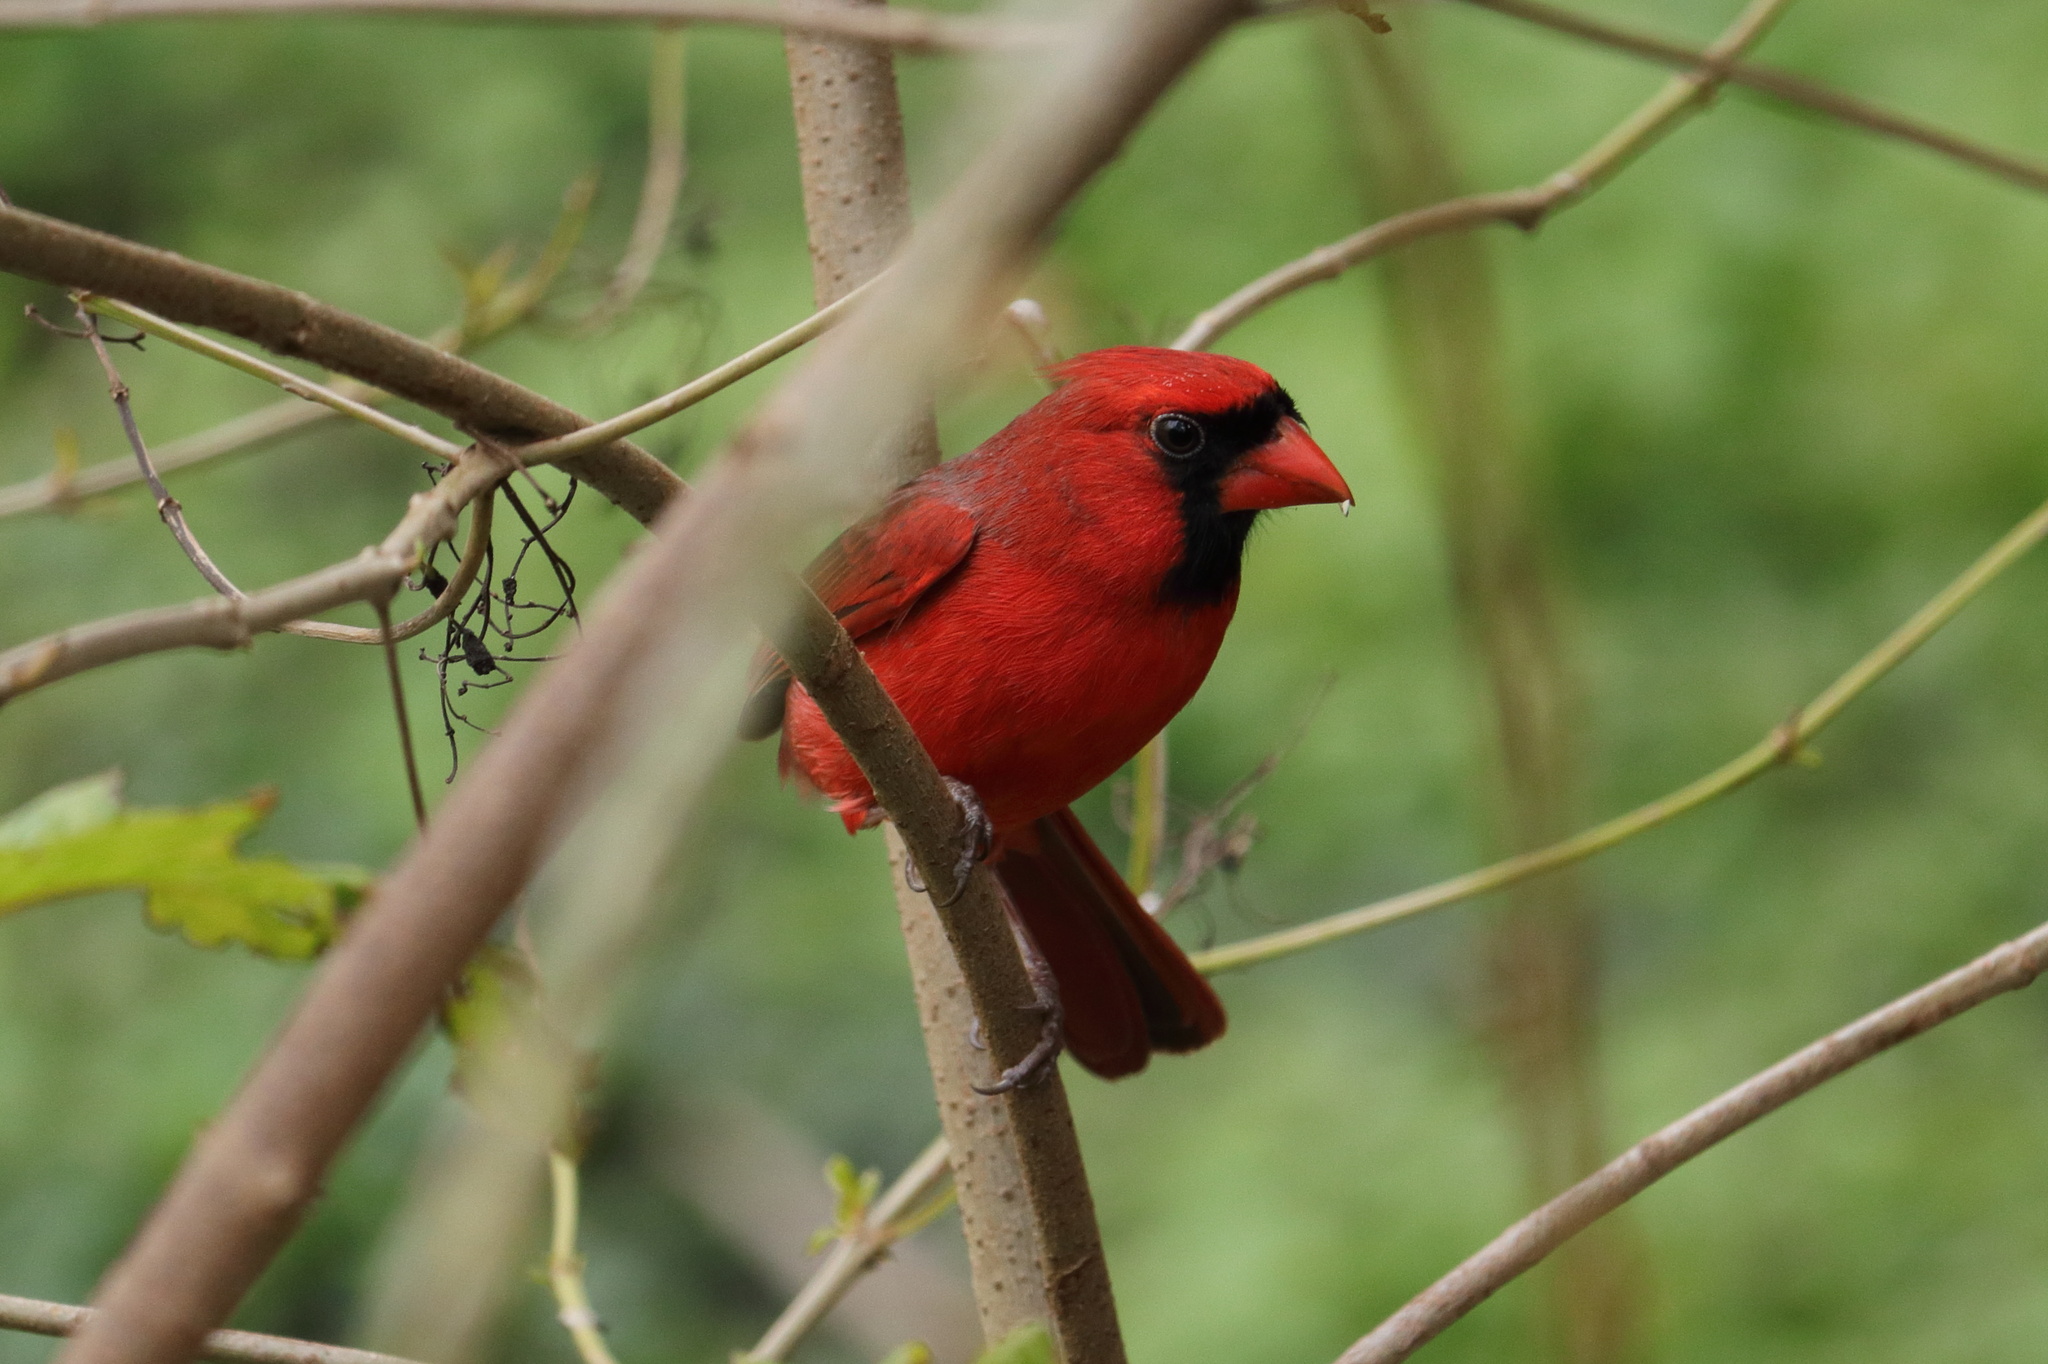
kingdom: Animalia
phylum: Chordata
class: Aves
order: Passeriformes
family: Cardinalidae
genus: Cardinalis
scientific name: Cardinalis cardinalis
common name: Northern cardinal
